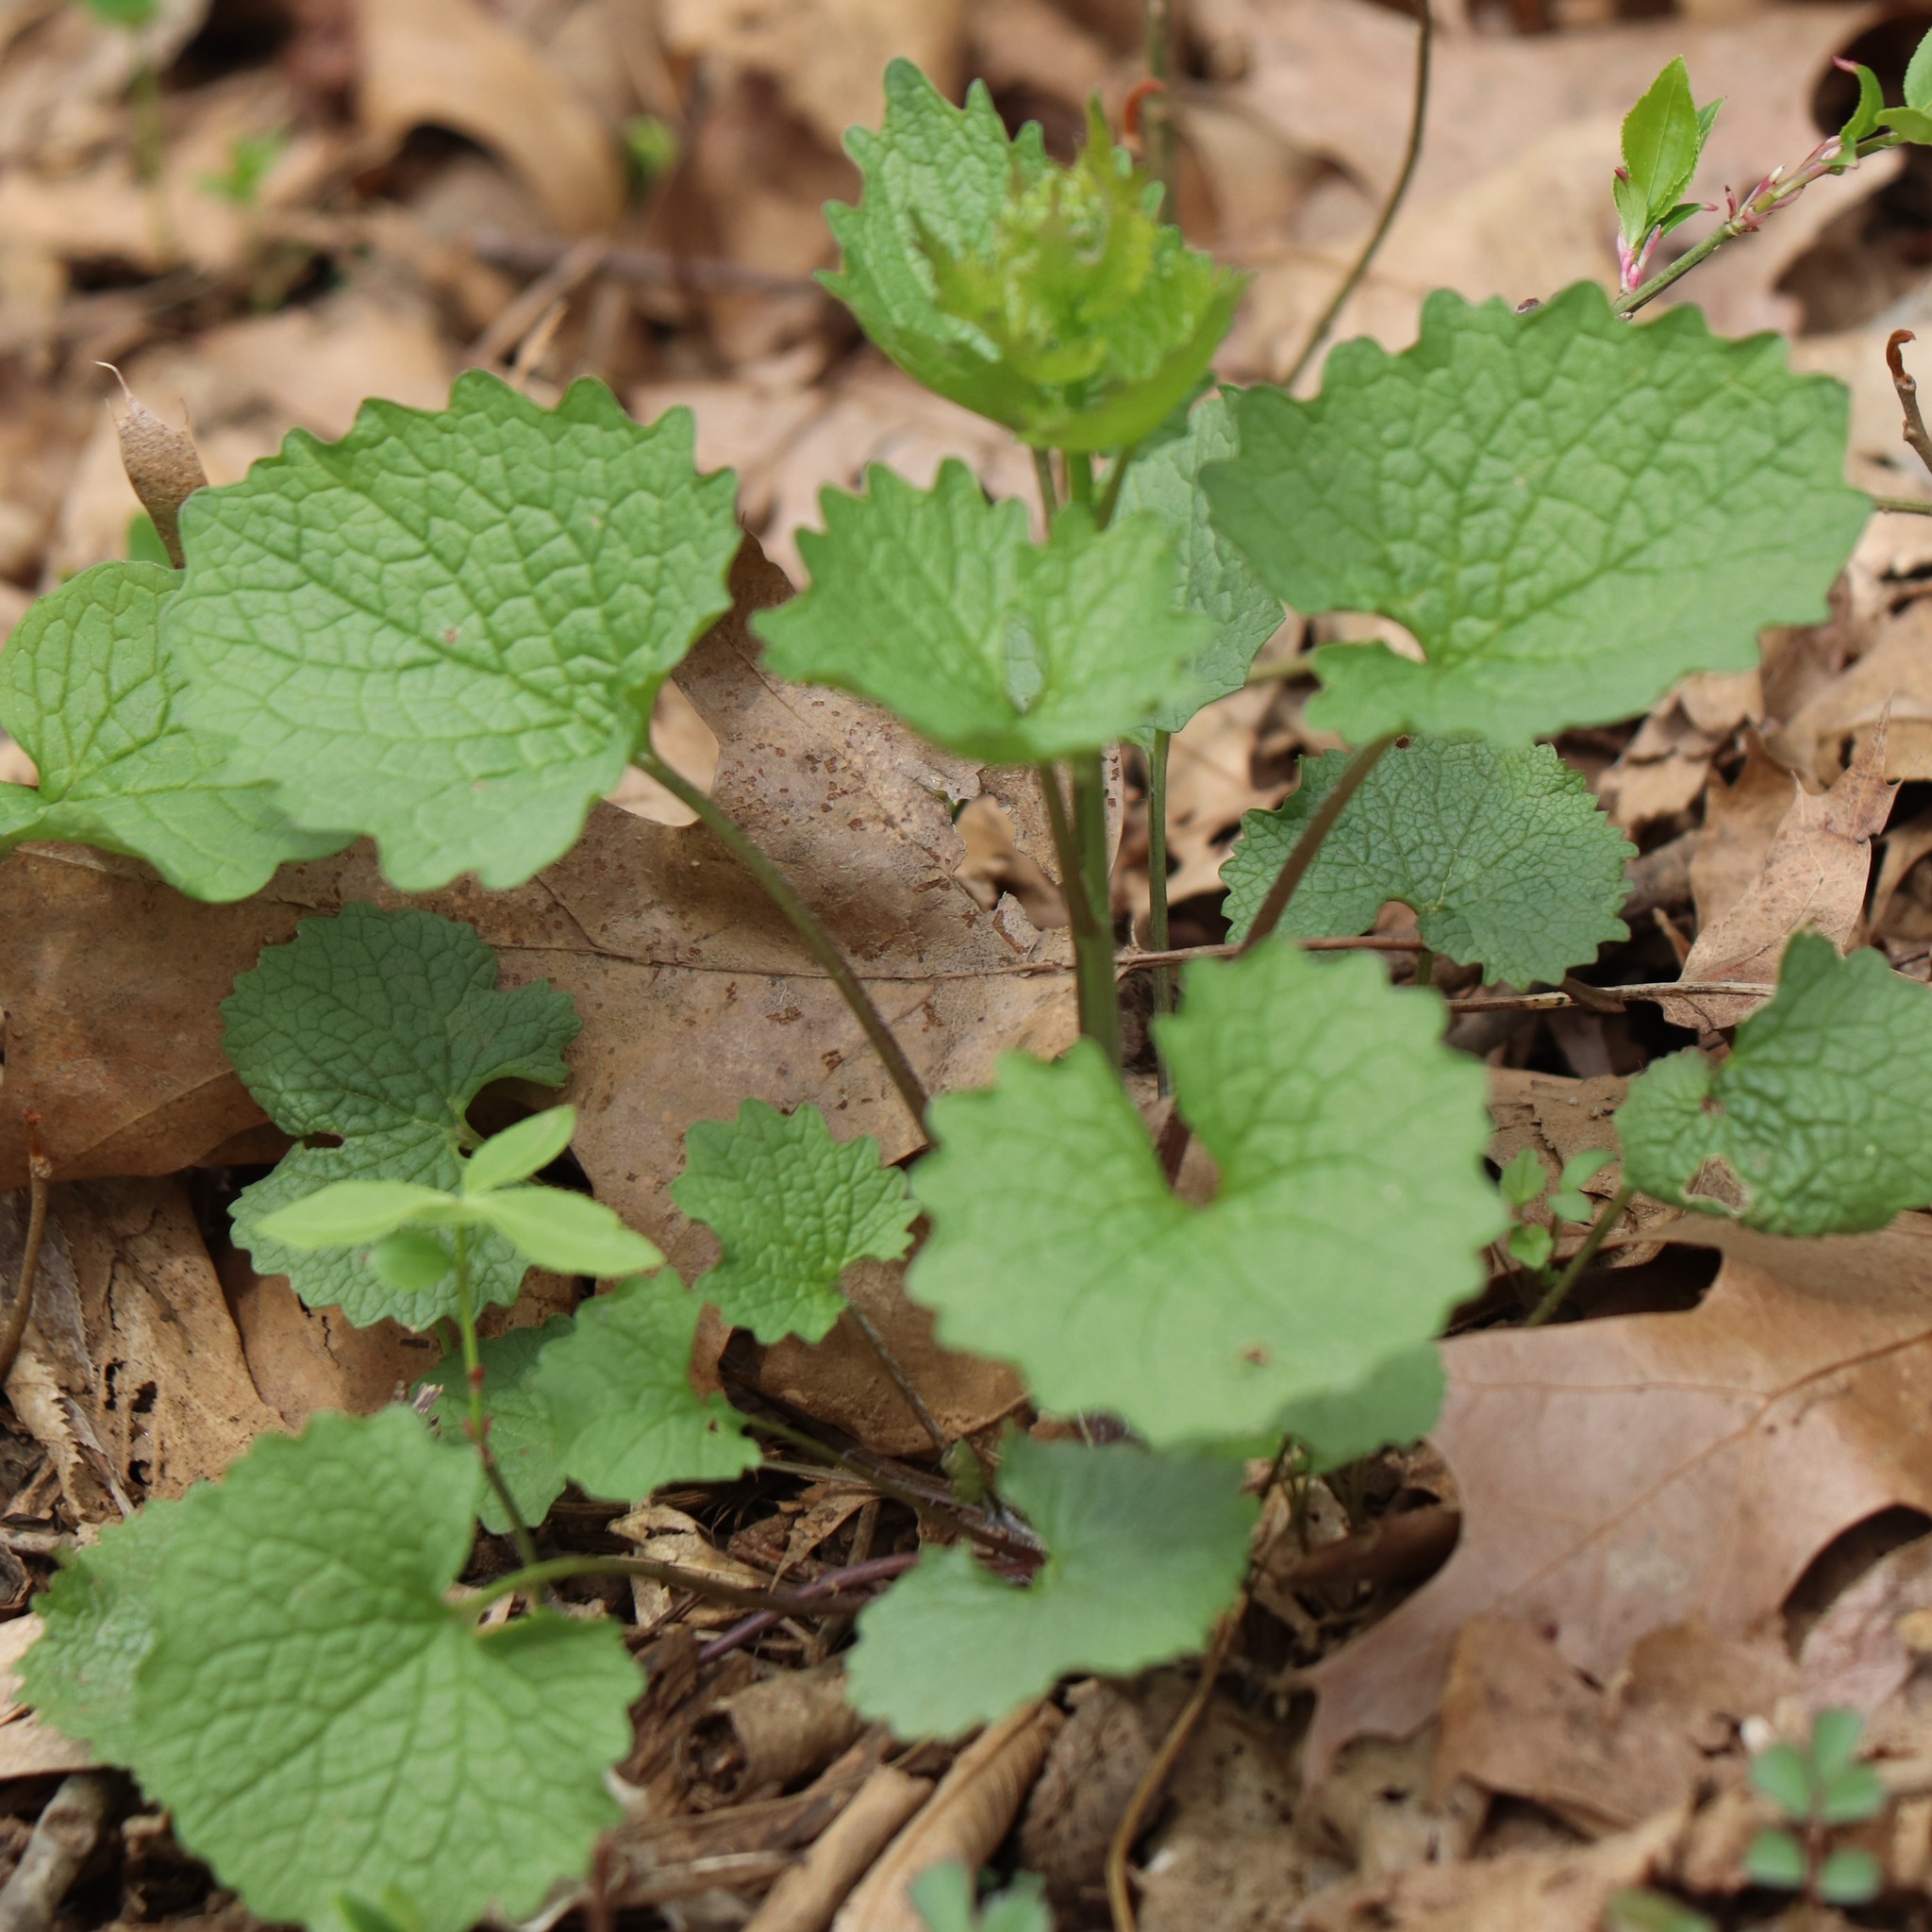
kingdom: Plantae
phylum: Tracheophyta
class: Magnoliopsida
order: Brassicales
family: Brassicaceae
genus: Alliaria
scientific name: Alliaria petiolata
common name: Garlic mustard
